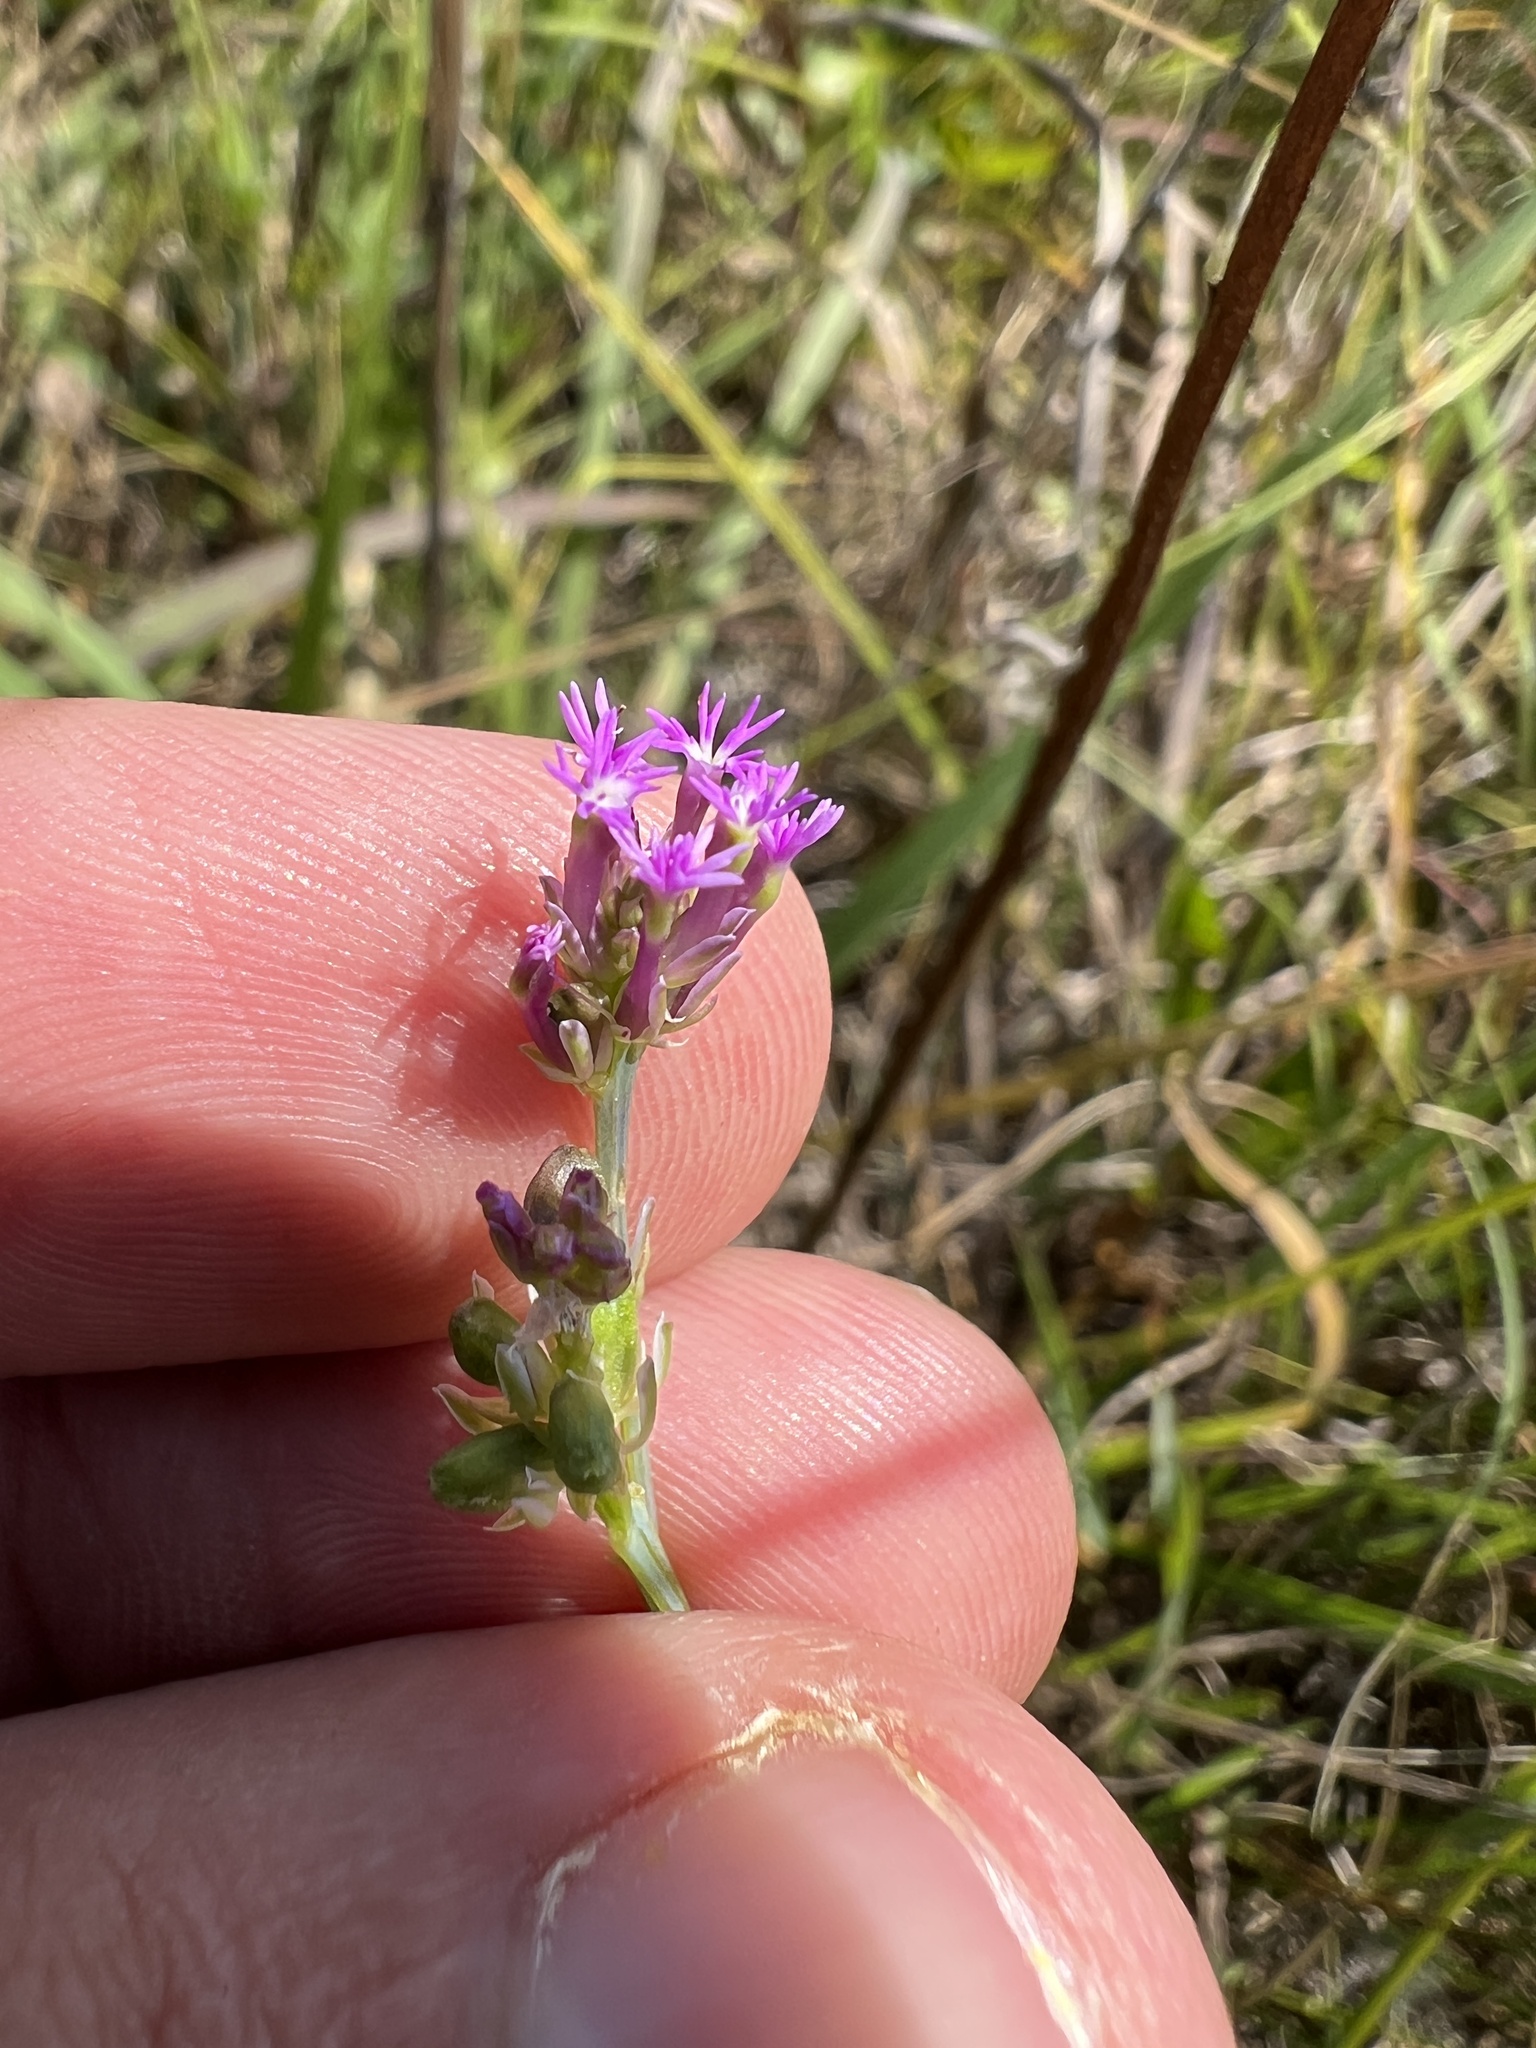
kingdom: Plantae
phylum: Tracheophyta
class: Magnoliopsida
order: Fabales
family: Polygalaceae
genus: Polygala
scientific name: Polygala incarnata
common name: Pink milkwort
